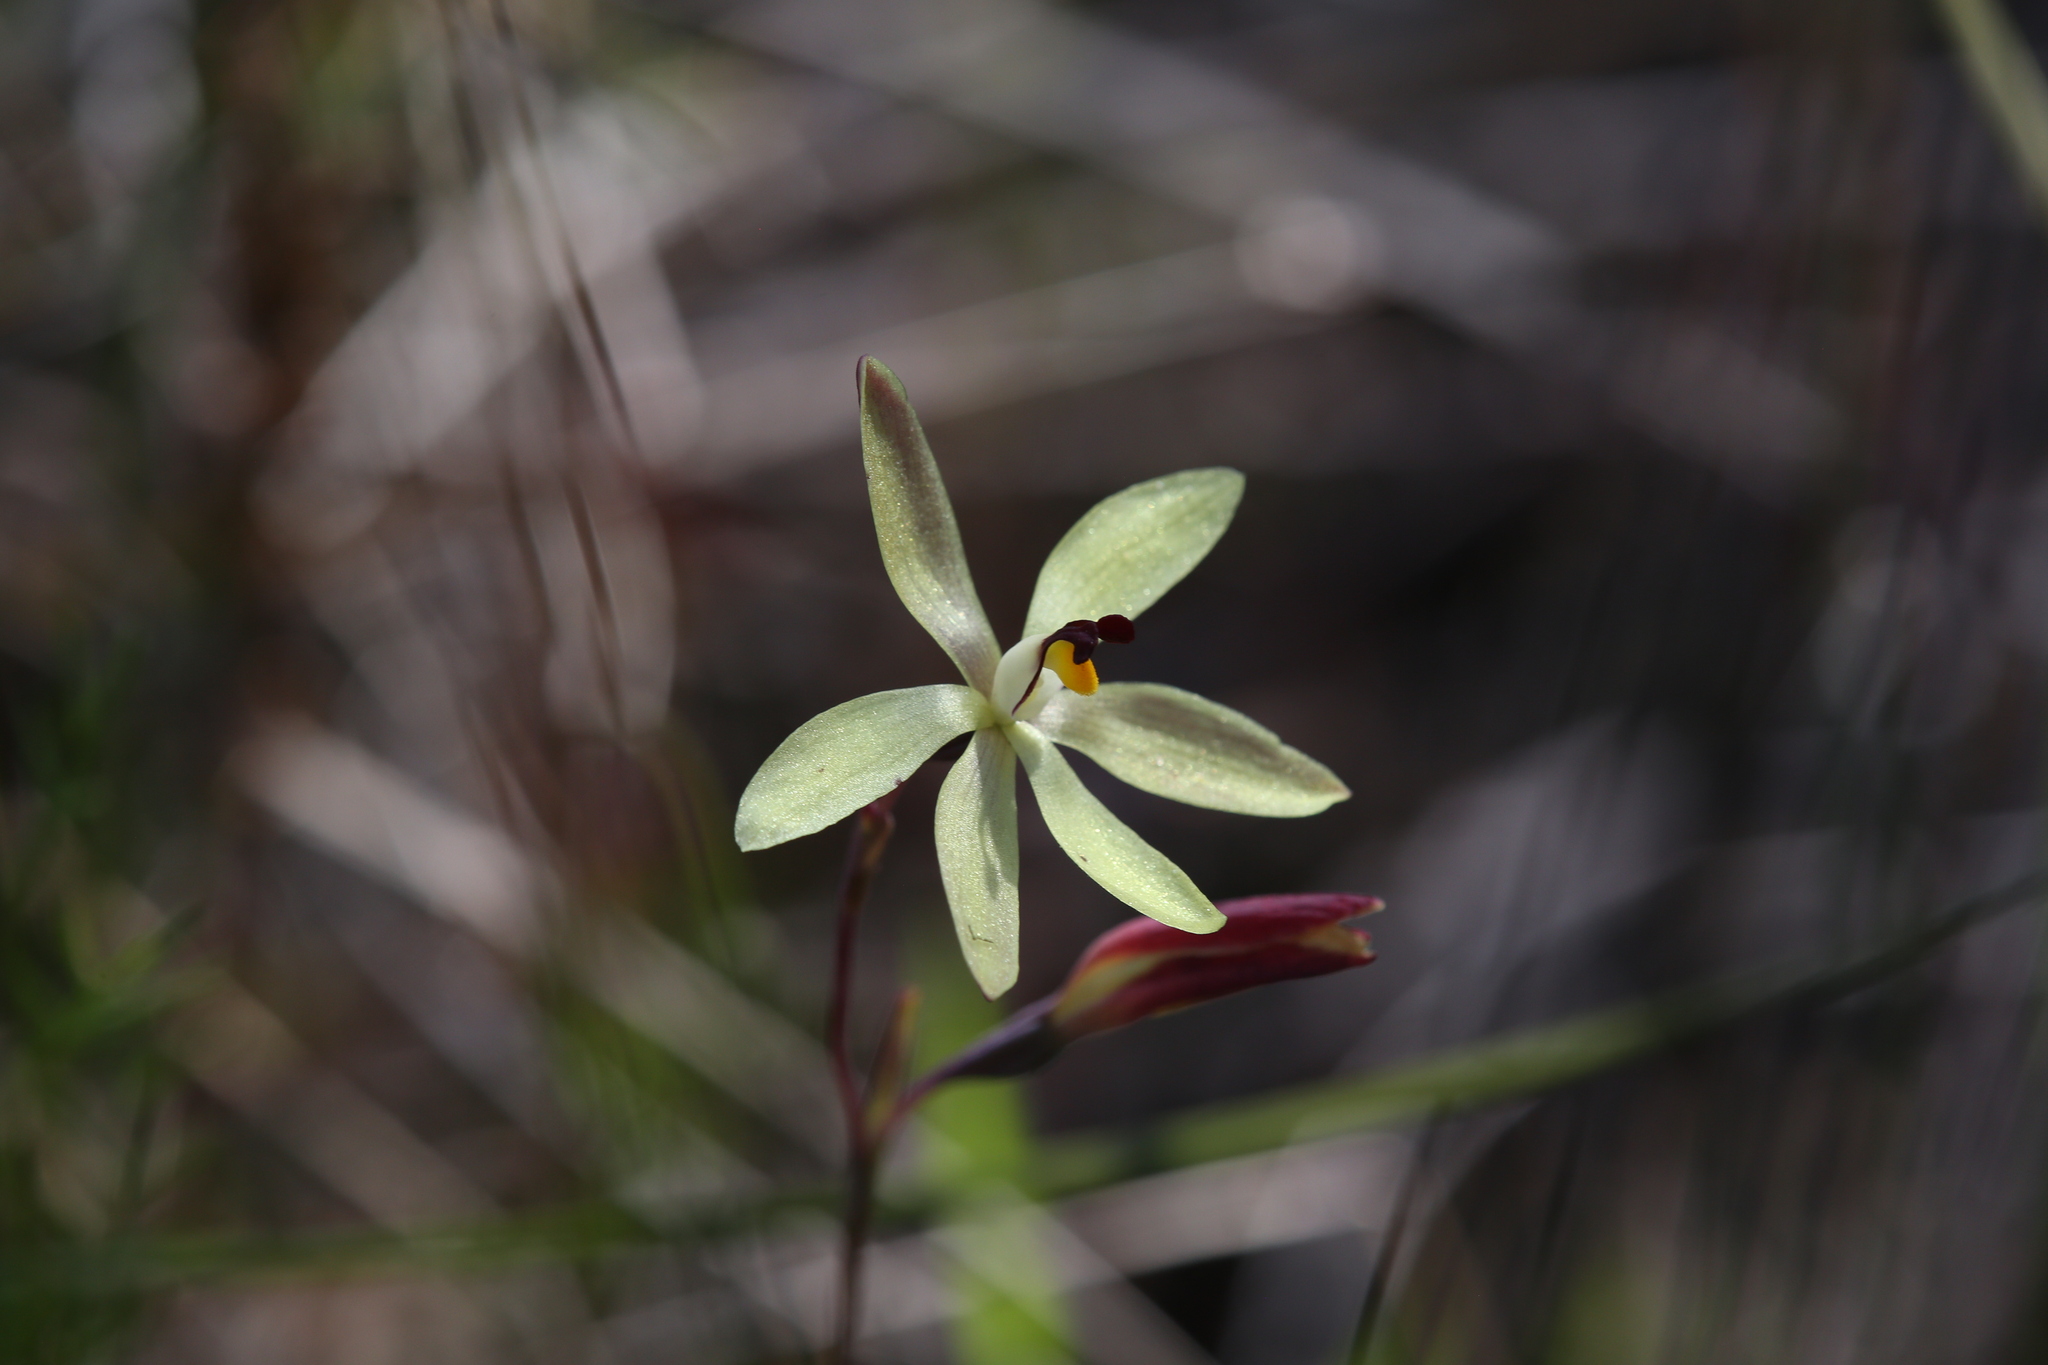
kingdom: Plantae
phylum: Tracheophyta
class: Liliopsida
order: Asparagales
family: Orchidaceae
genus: Thelymitra
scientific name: Thelymitra antennifera
